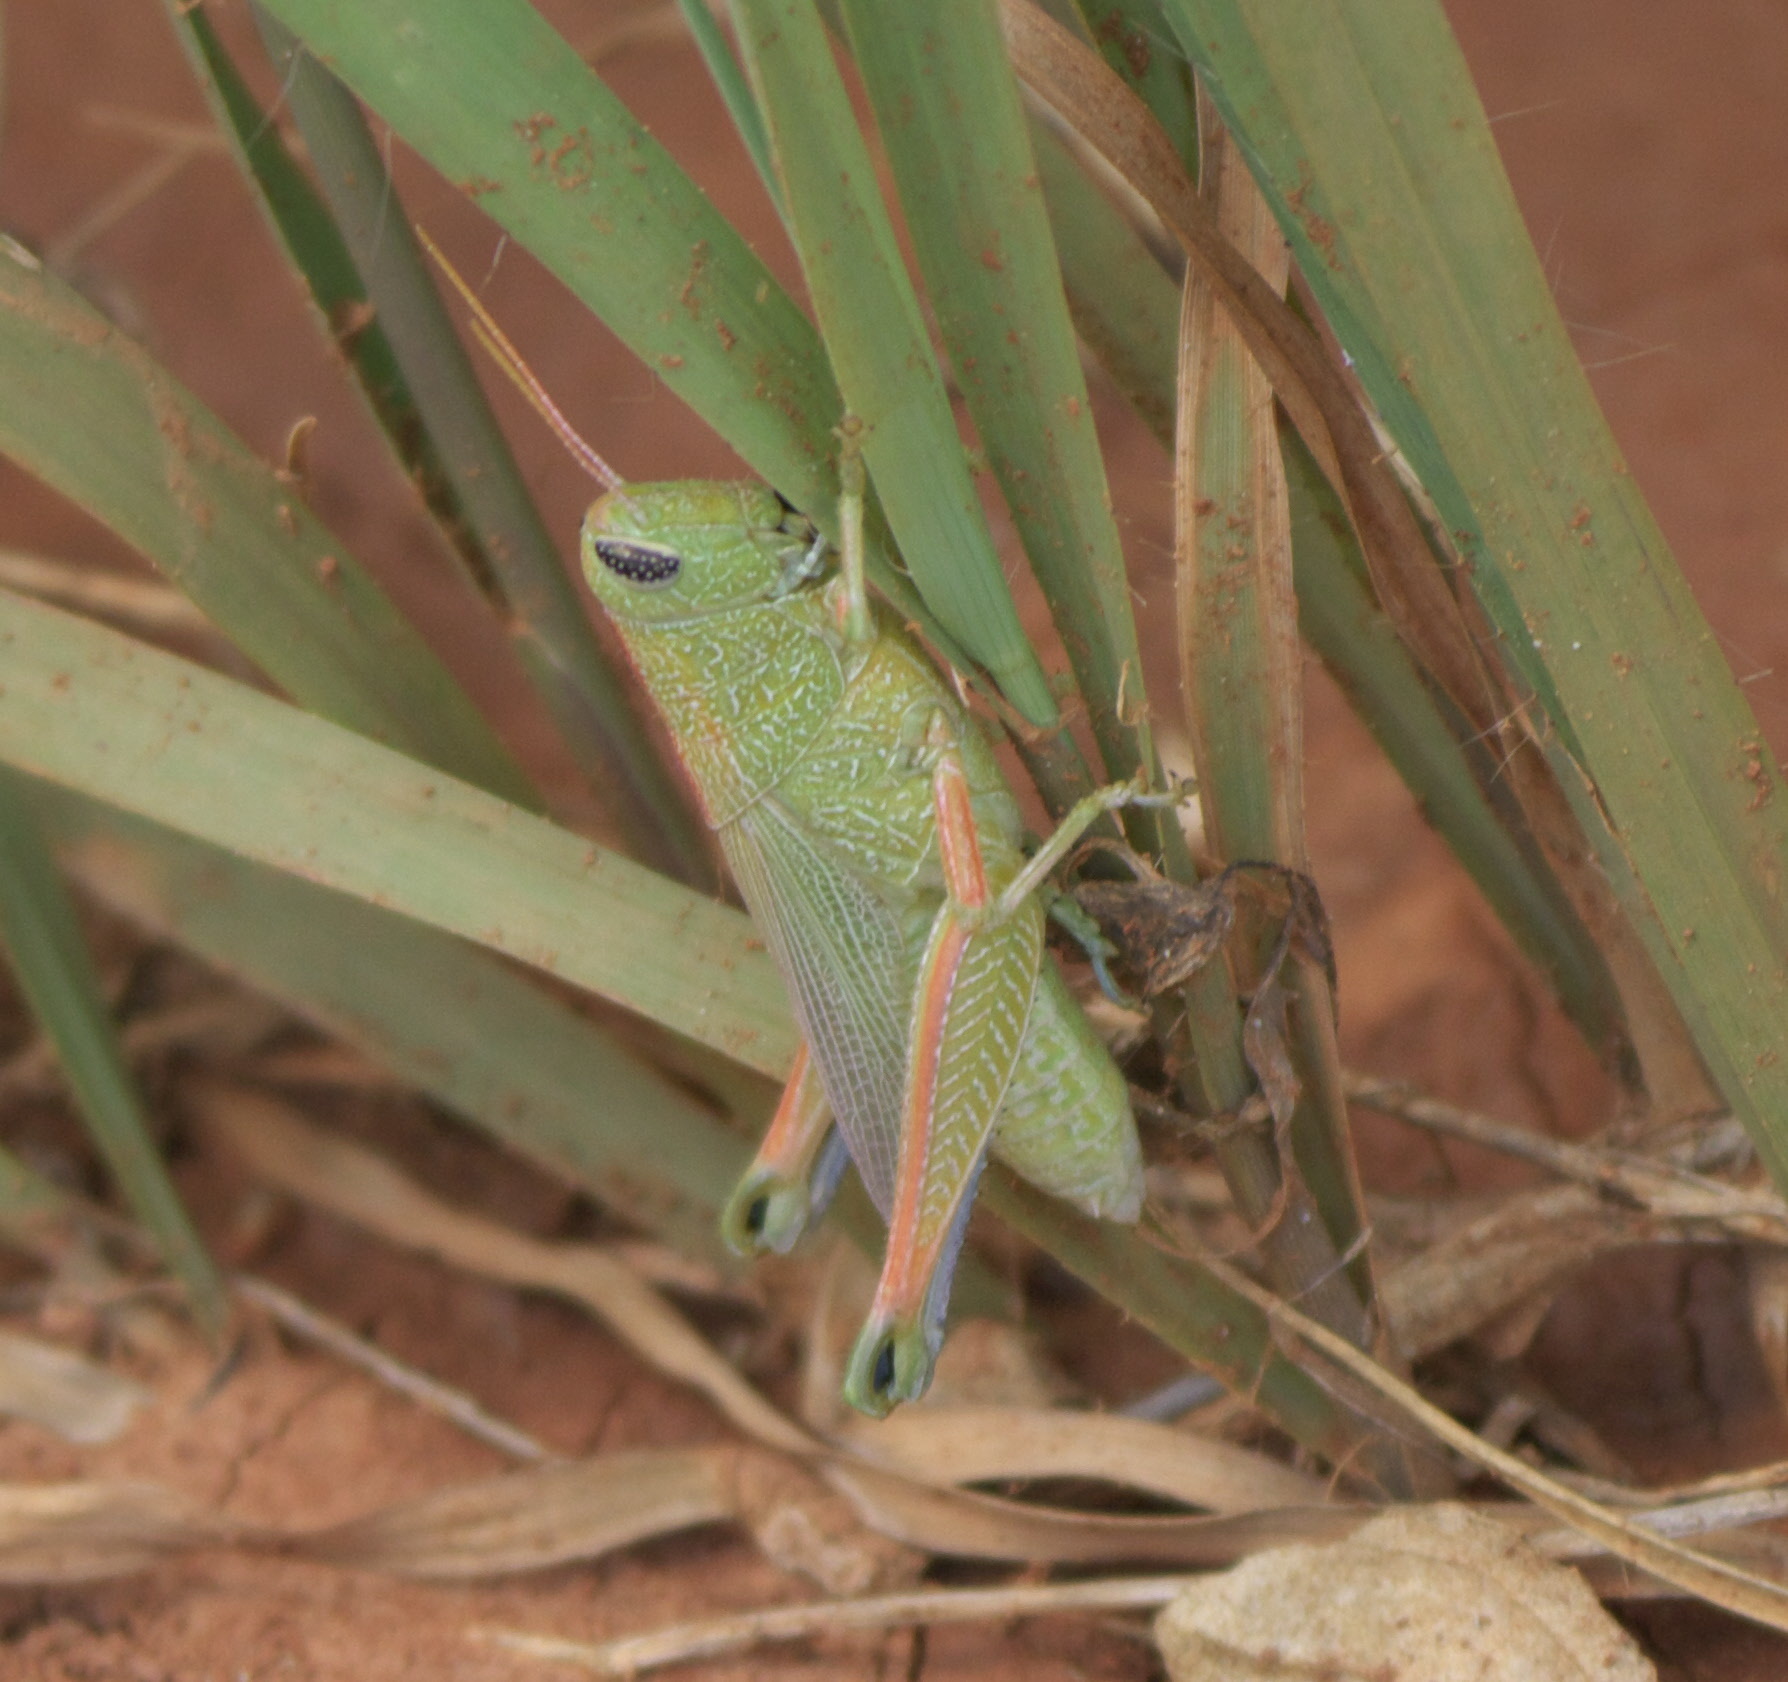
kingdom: Animalia
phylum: Arthropoda
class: Insecta
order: Orthoptera
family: Acrididae
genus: Hesperotettix
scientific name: Hesperotettix speciosus
